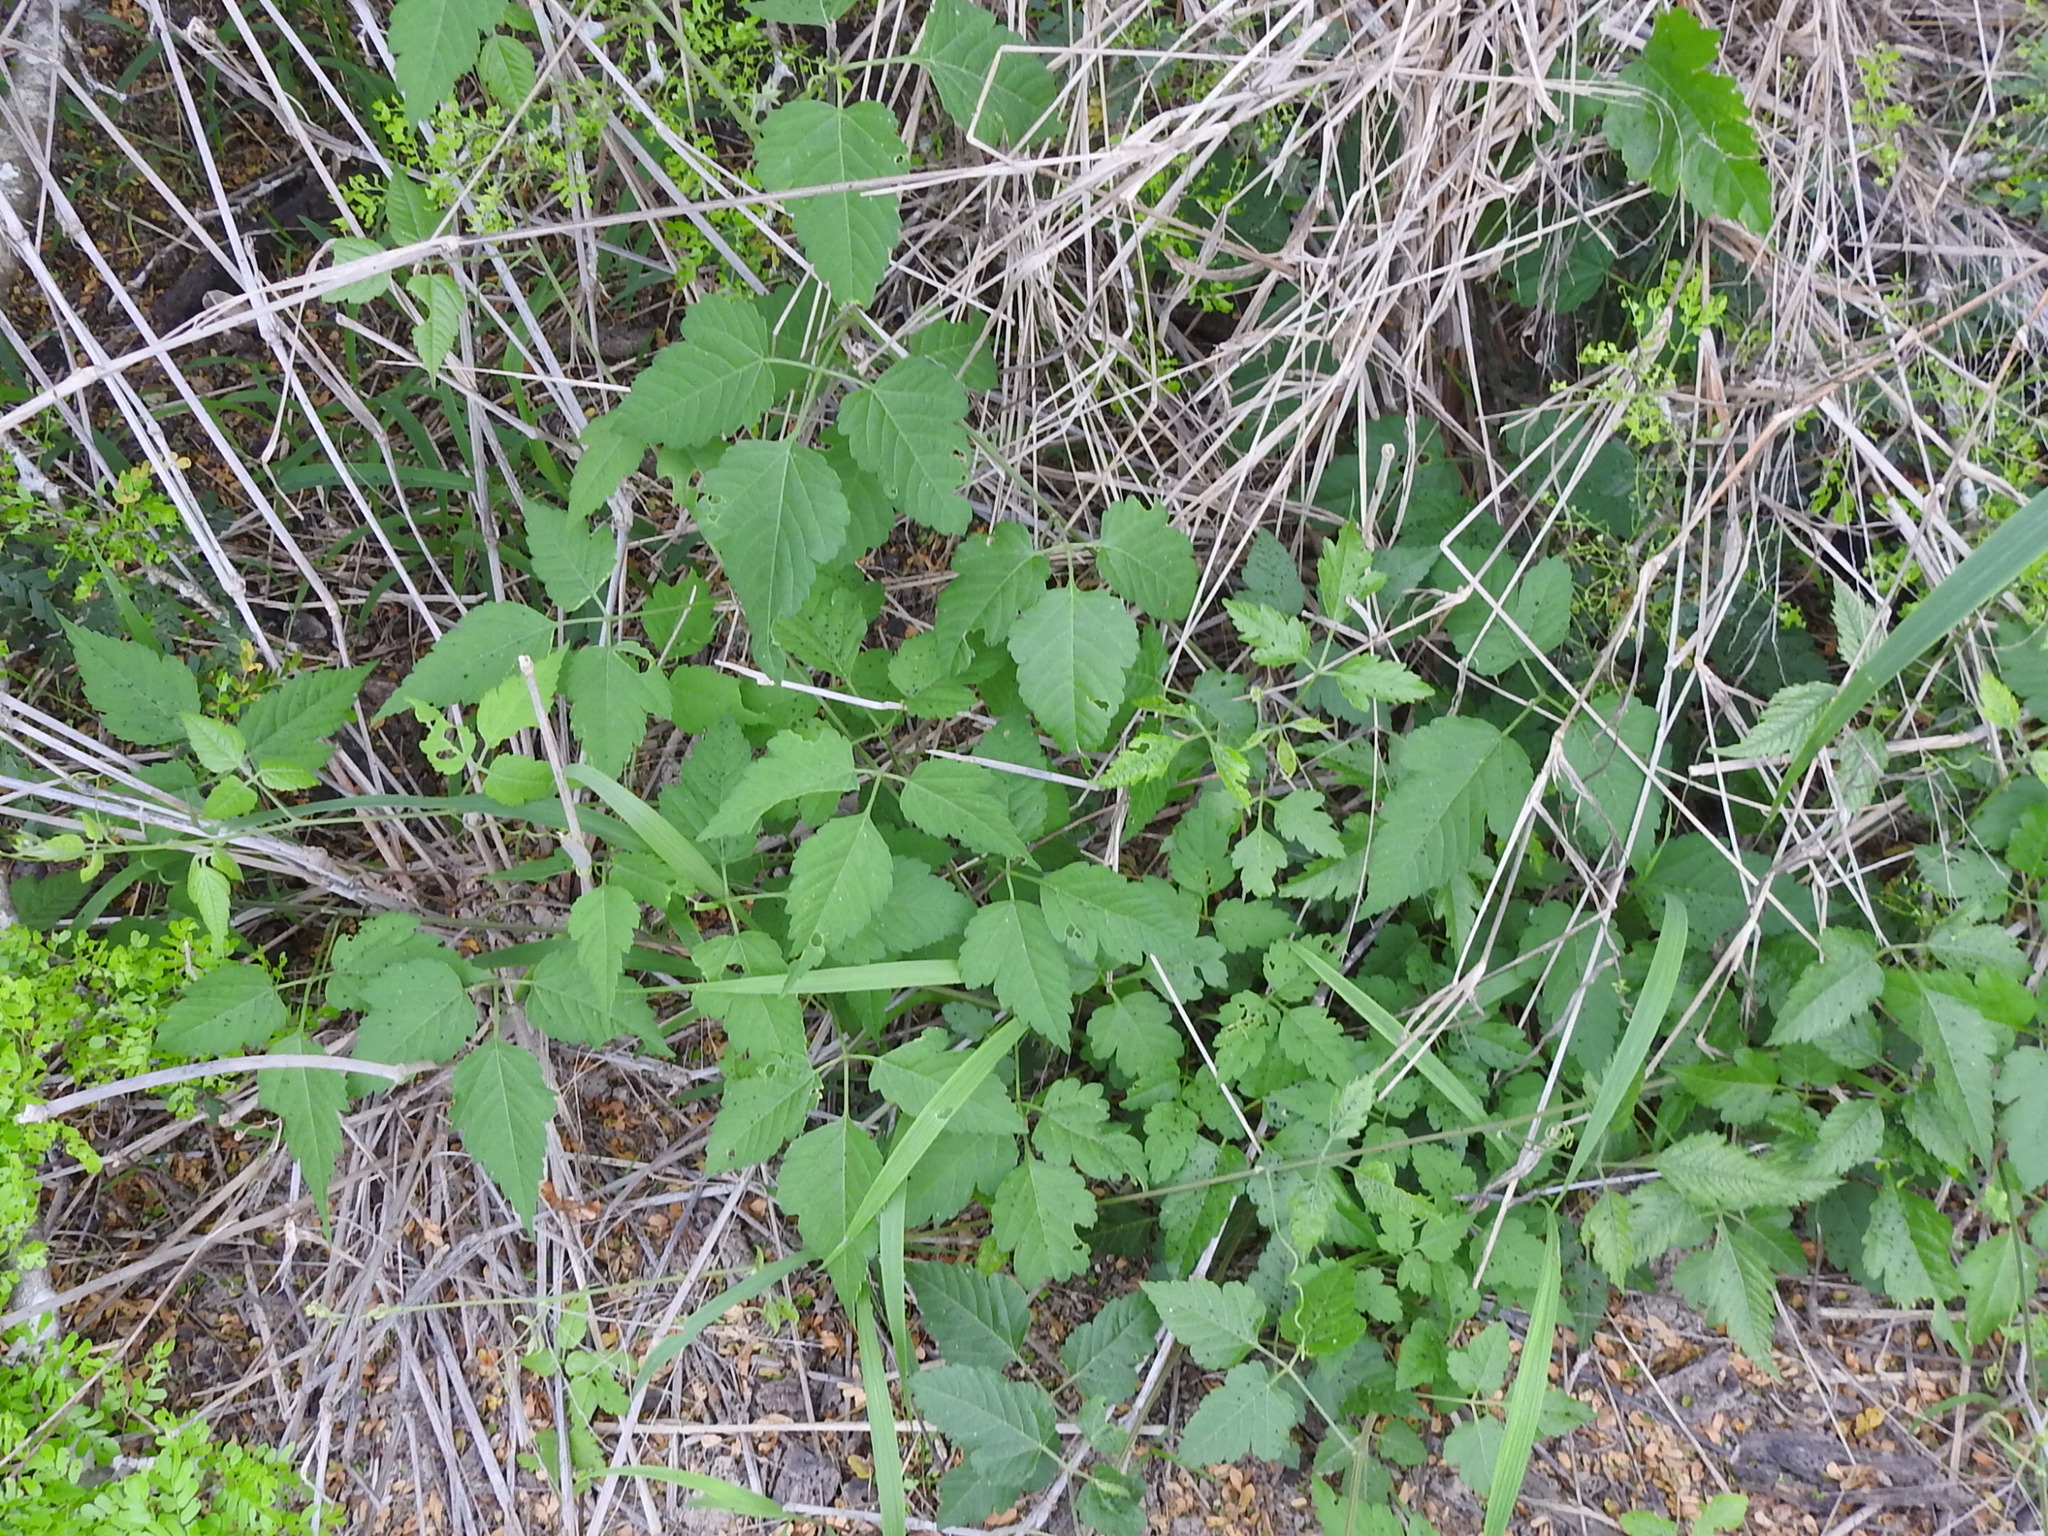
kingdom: Plantae
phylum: Tracheophyta
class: Magnoliopsida
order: Sapindales
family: Sapindaceae
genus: Urvillea
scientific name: Urvillea ulmacea
